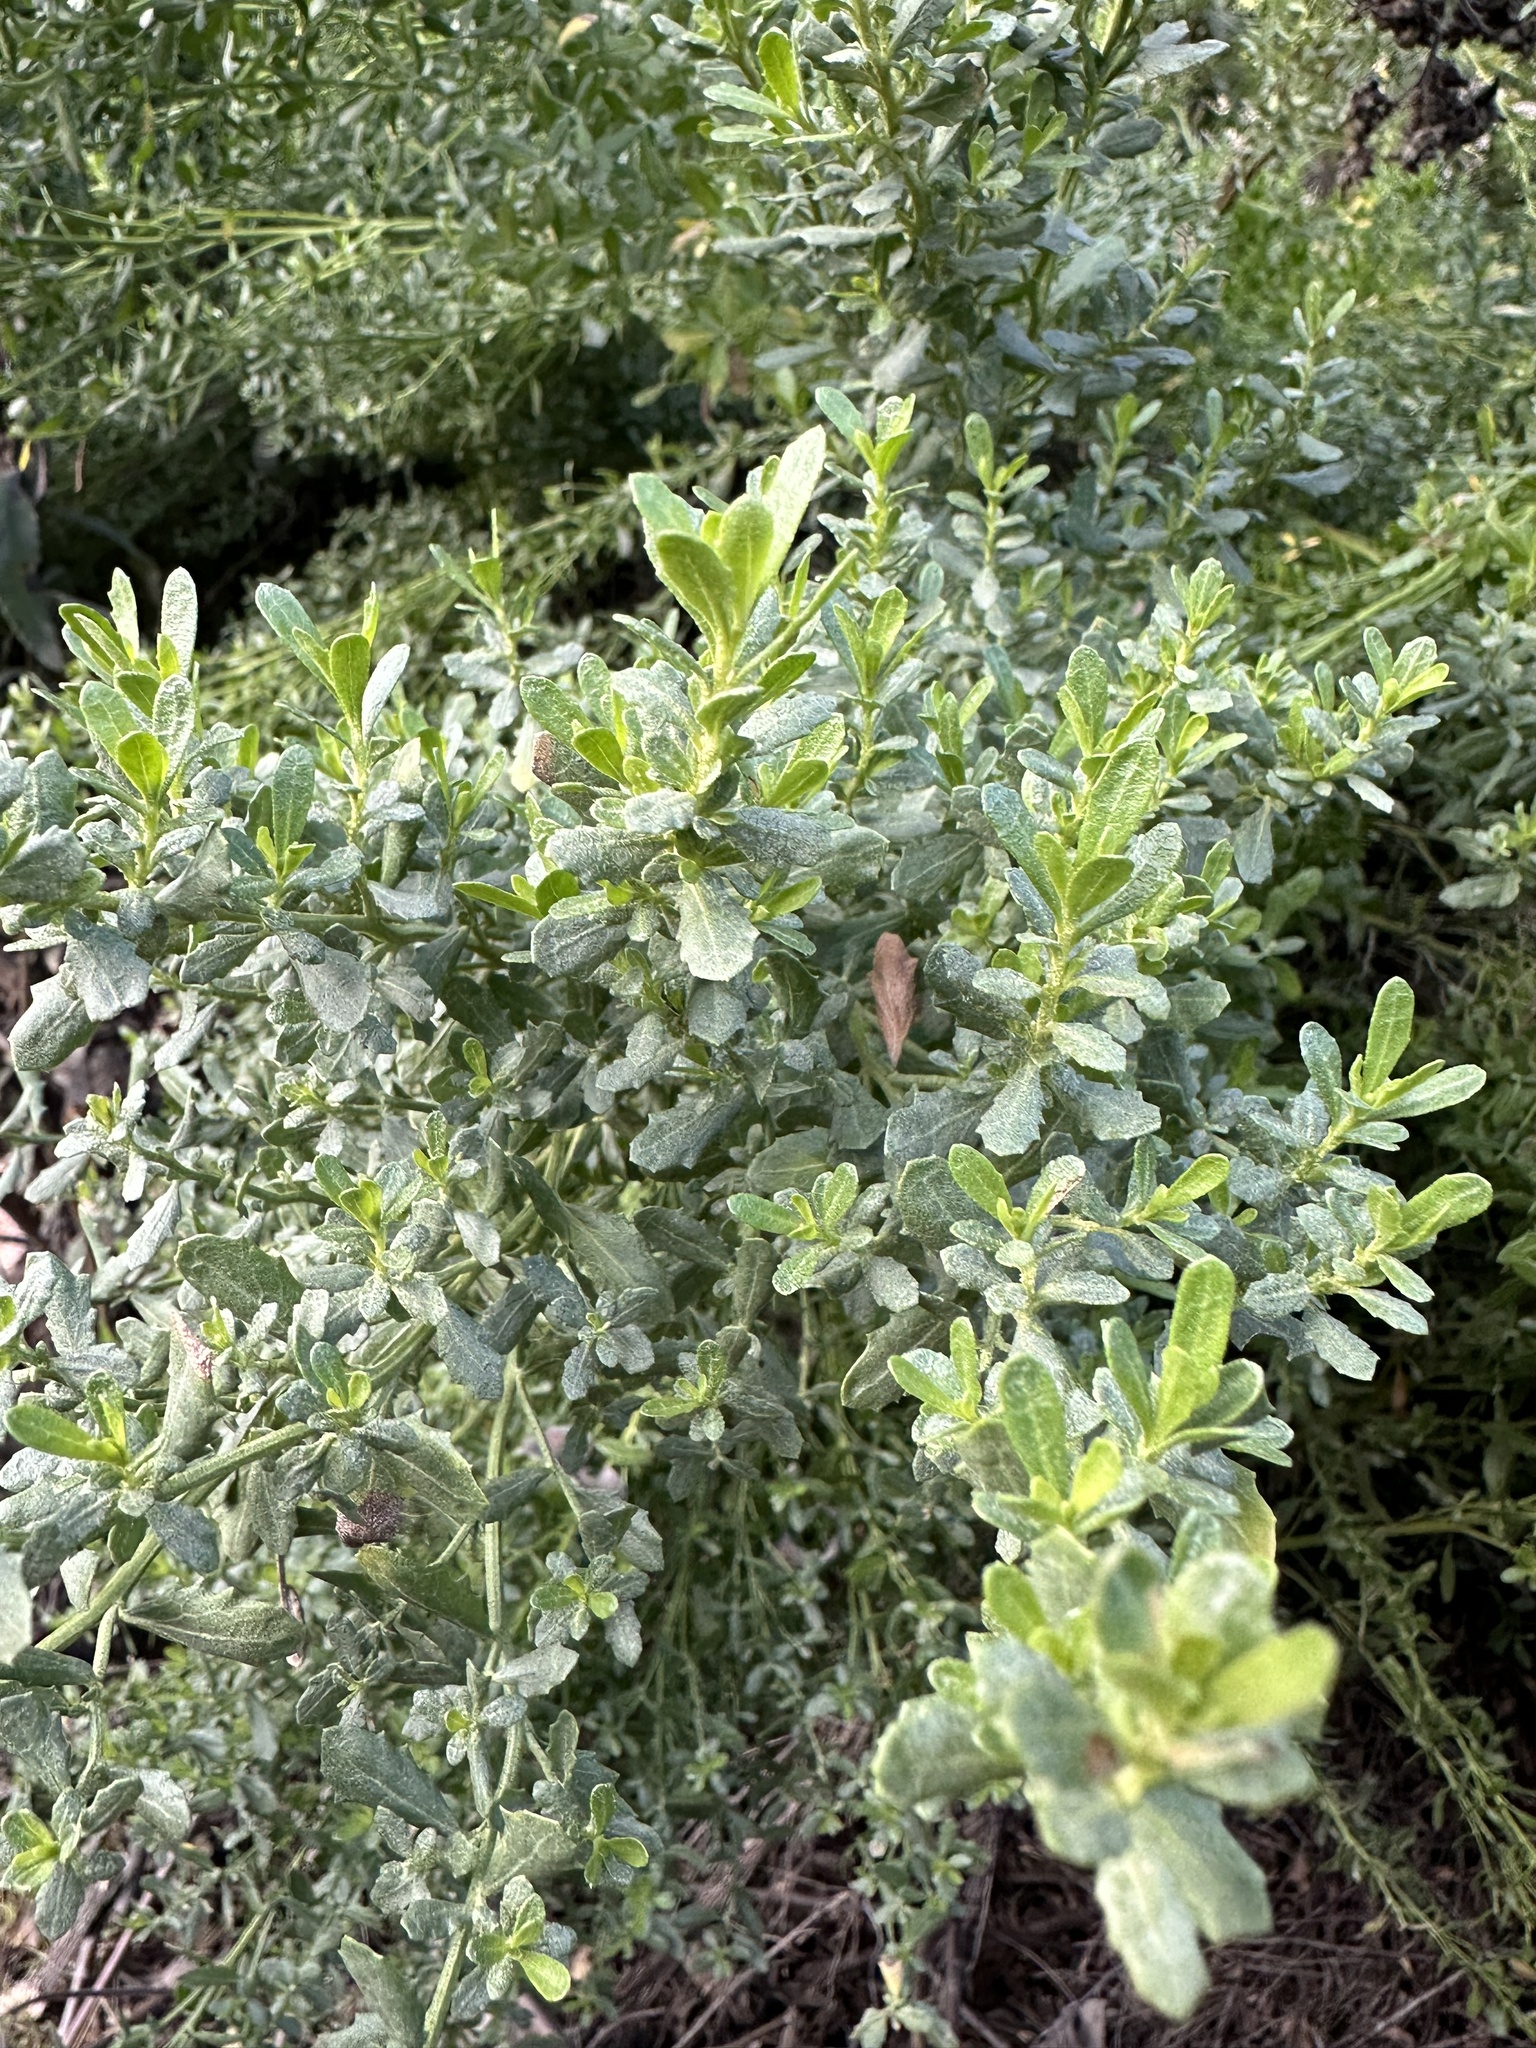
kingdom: Plantae
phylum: Tracheophyta
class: Magnoliopsida
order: Asterales
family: Asteraceae
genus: Baccharis
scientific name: Baccharis pilularis
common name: Coyotebrush
